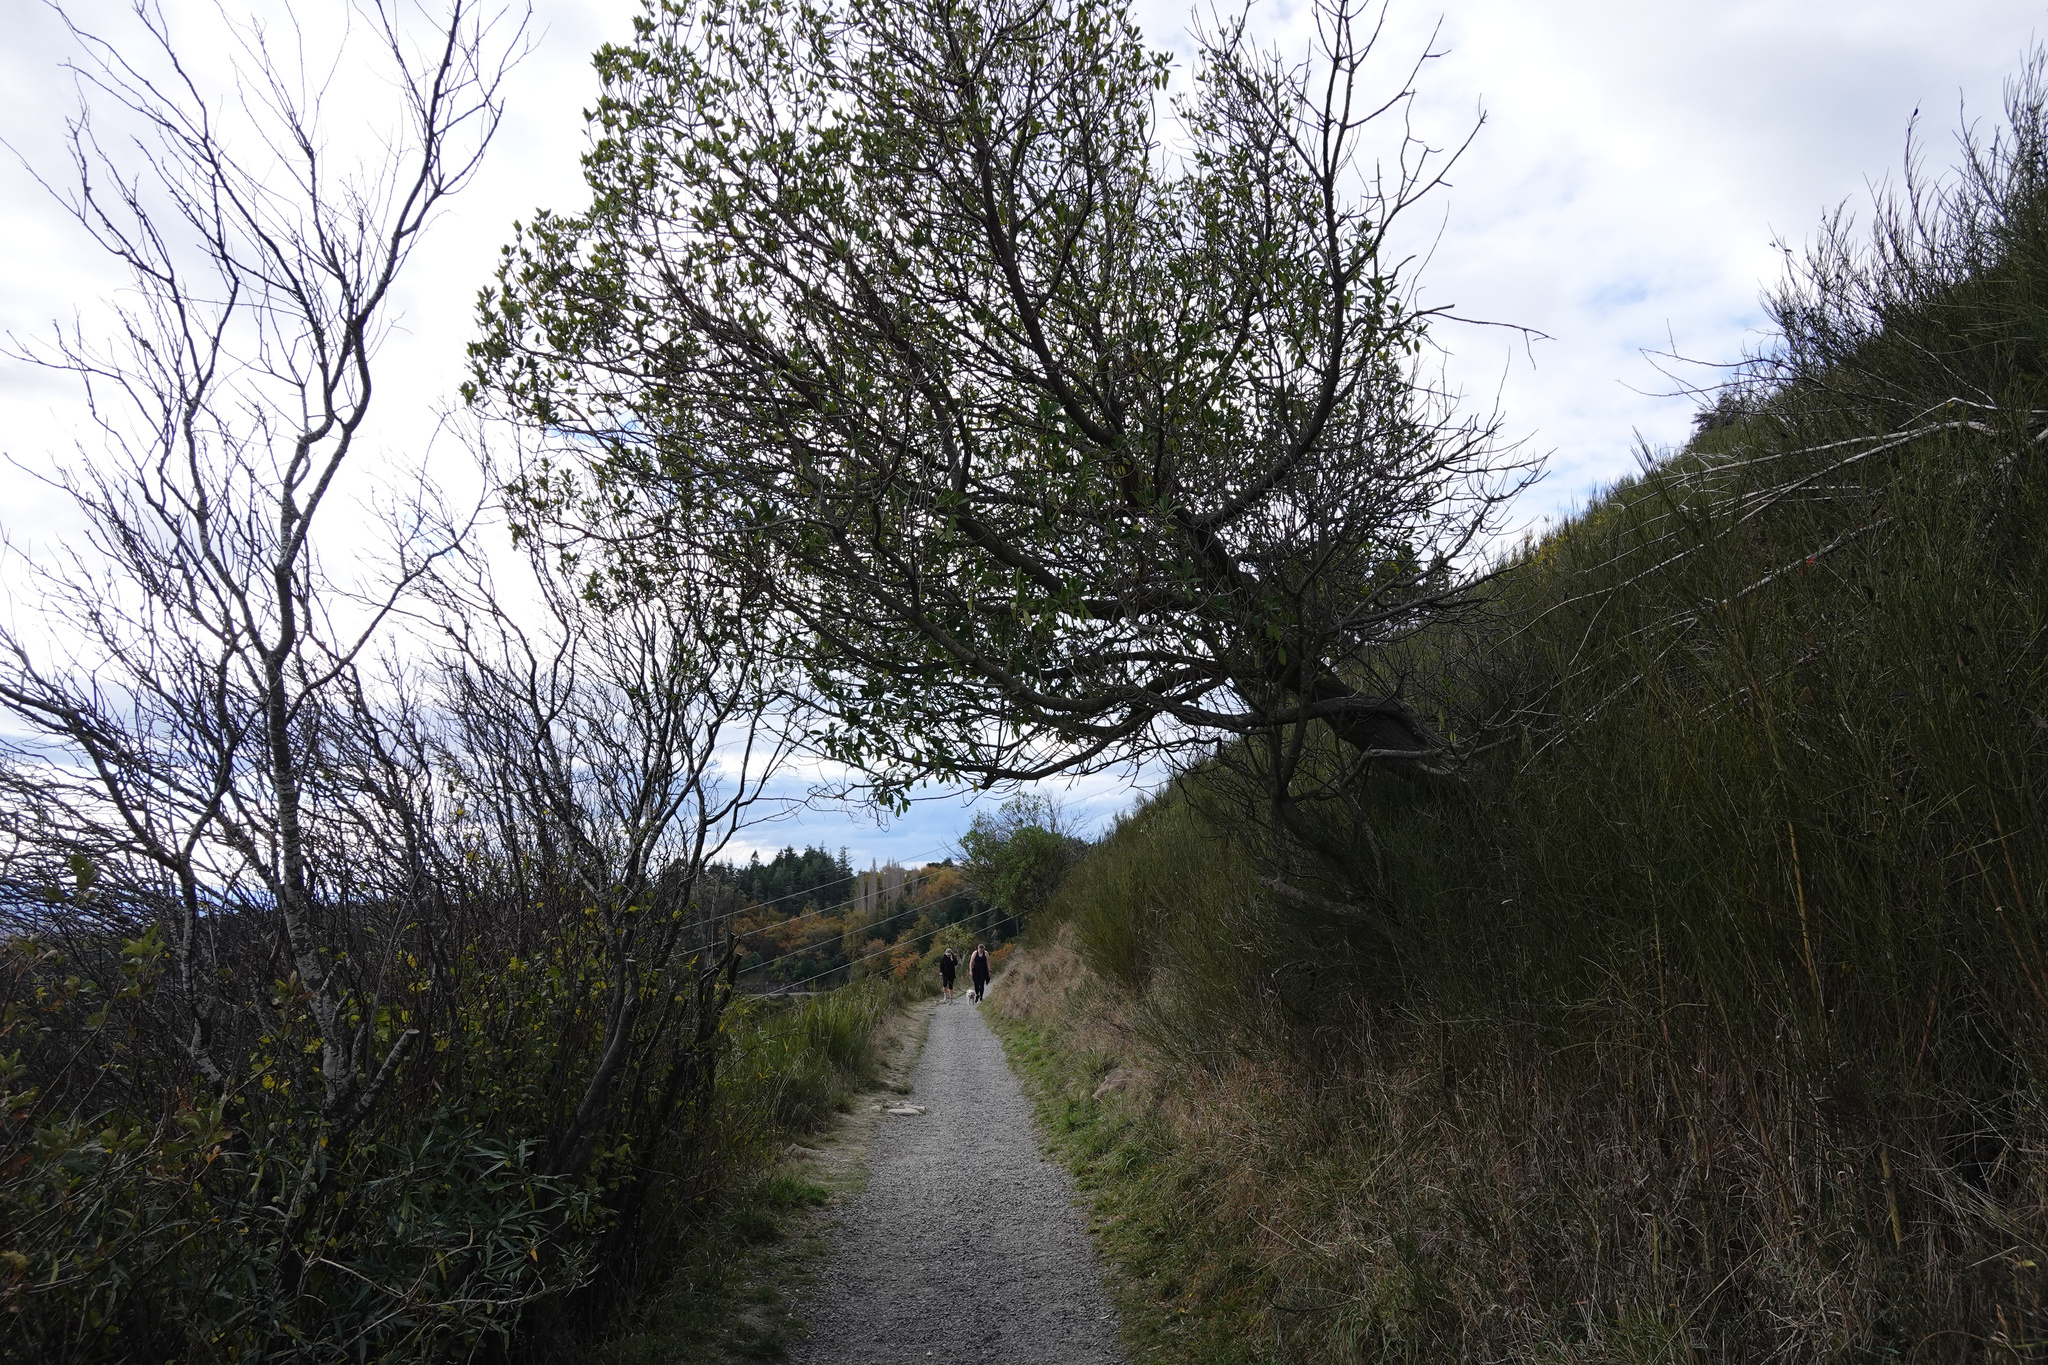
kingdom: Plantae
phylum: Tracheophyta
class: Magnoliopsida
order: Lamiales
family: Scrophulariaceae
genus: Myoporum
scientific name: Myoporum laetum
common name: Ngaio tree
